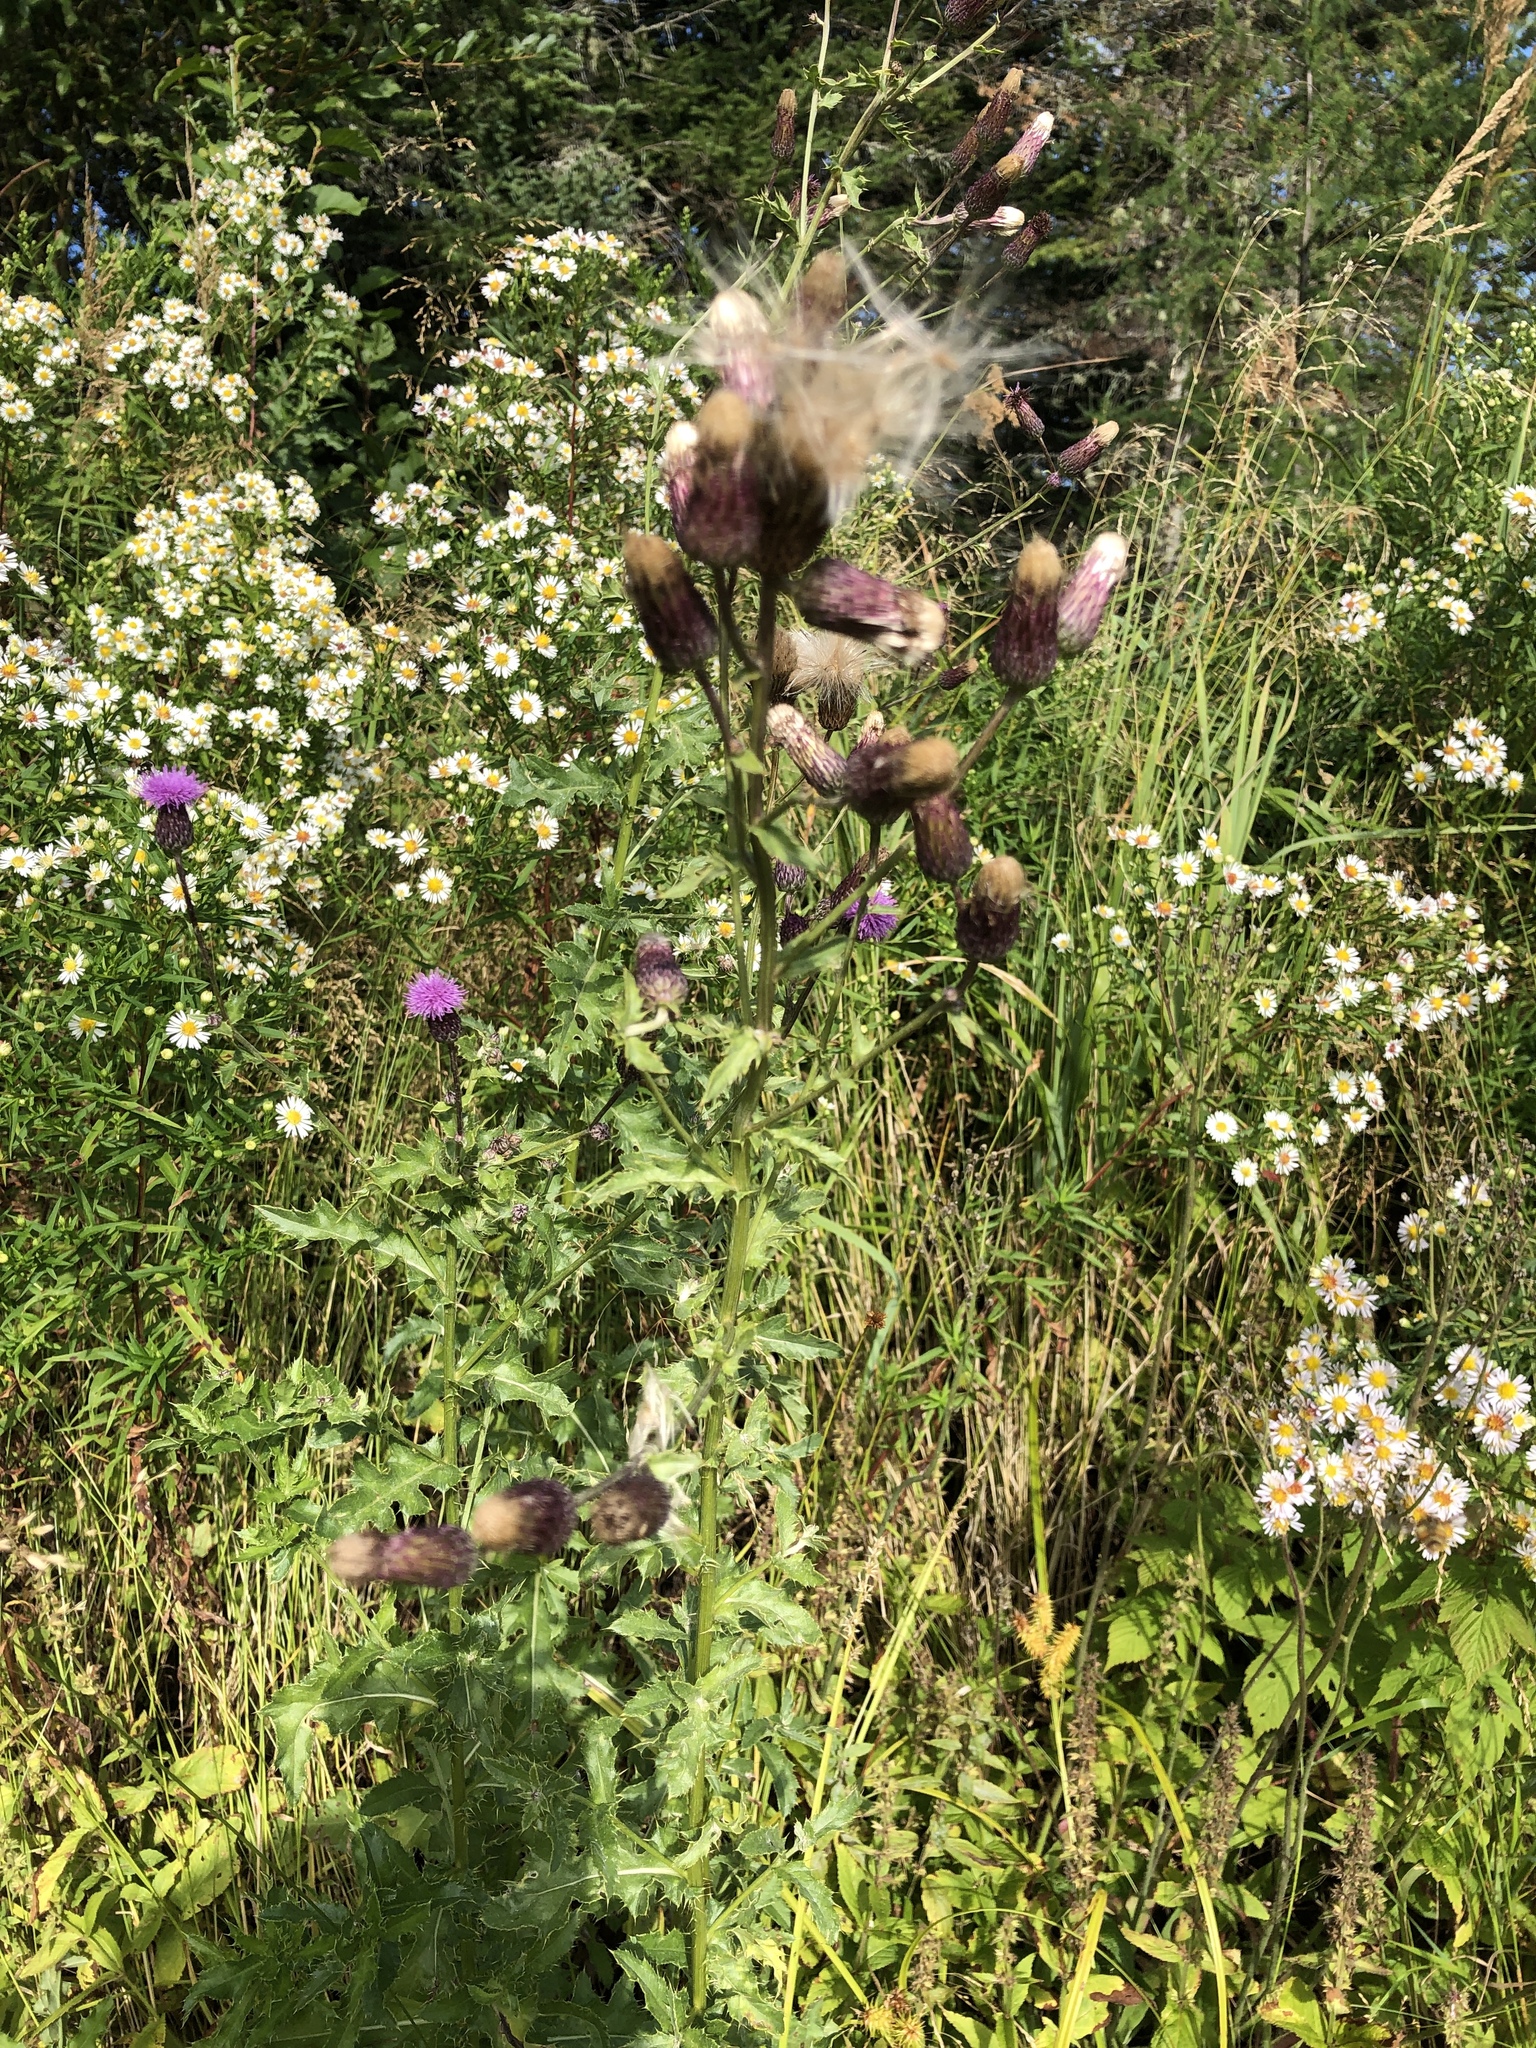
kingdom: Plantae
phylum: Tracheophyta
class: Magnoliopsida
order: Asterales
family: Asteraceae
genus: Cirsium
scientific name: Cirsium arvense
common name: Creeping thistle
